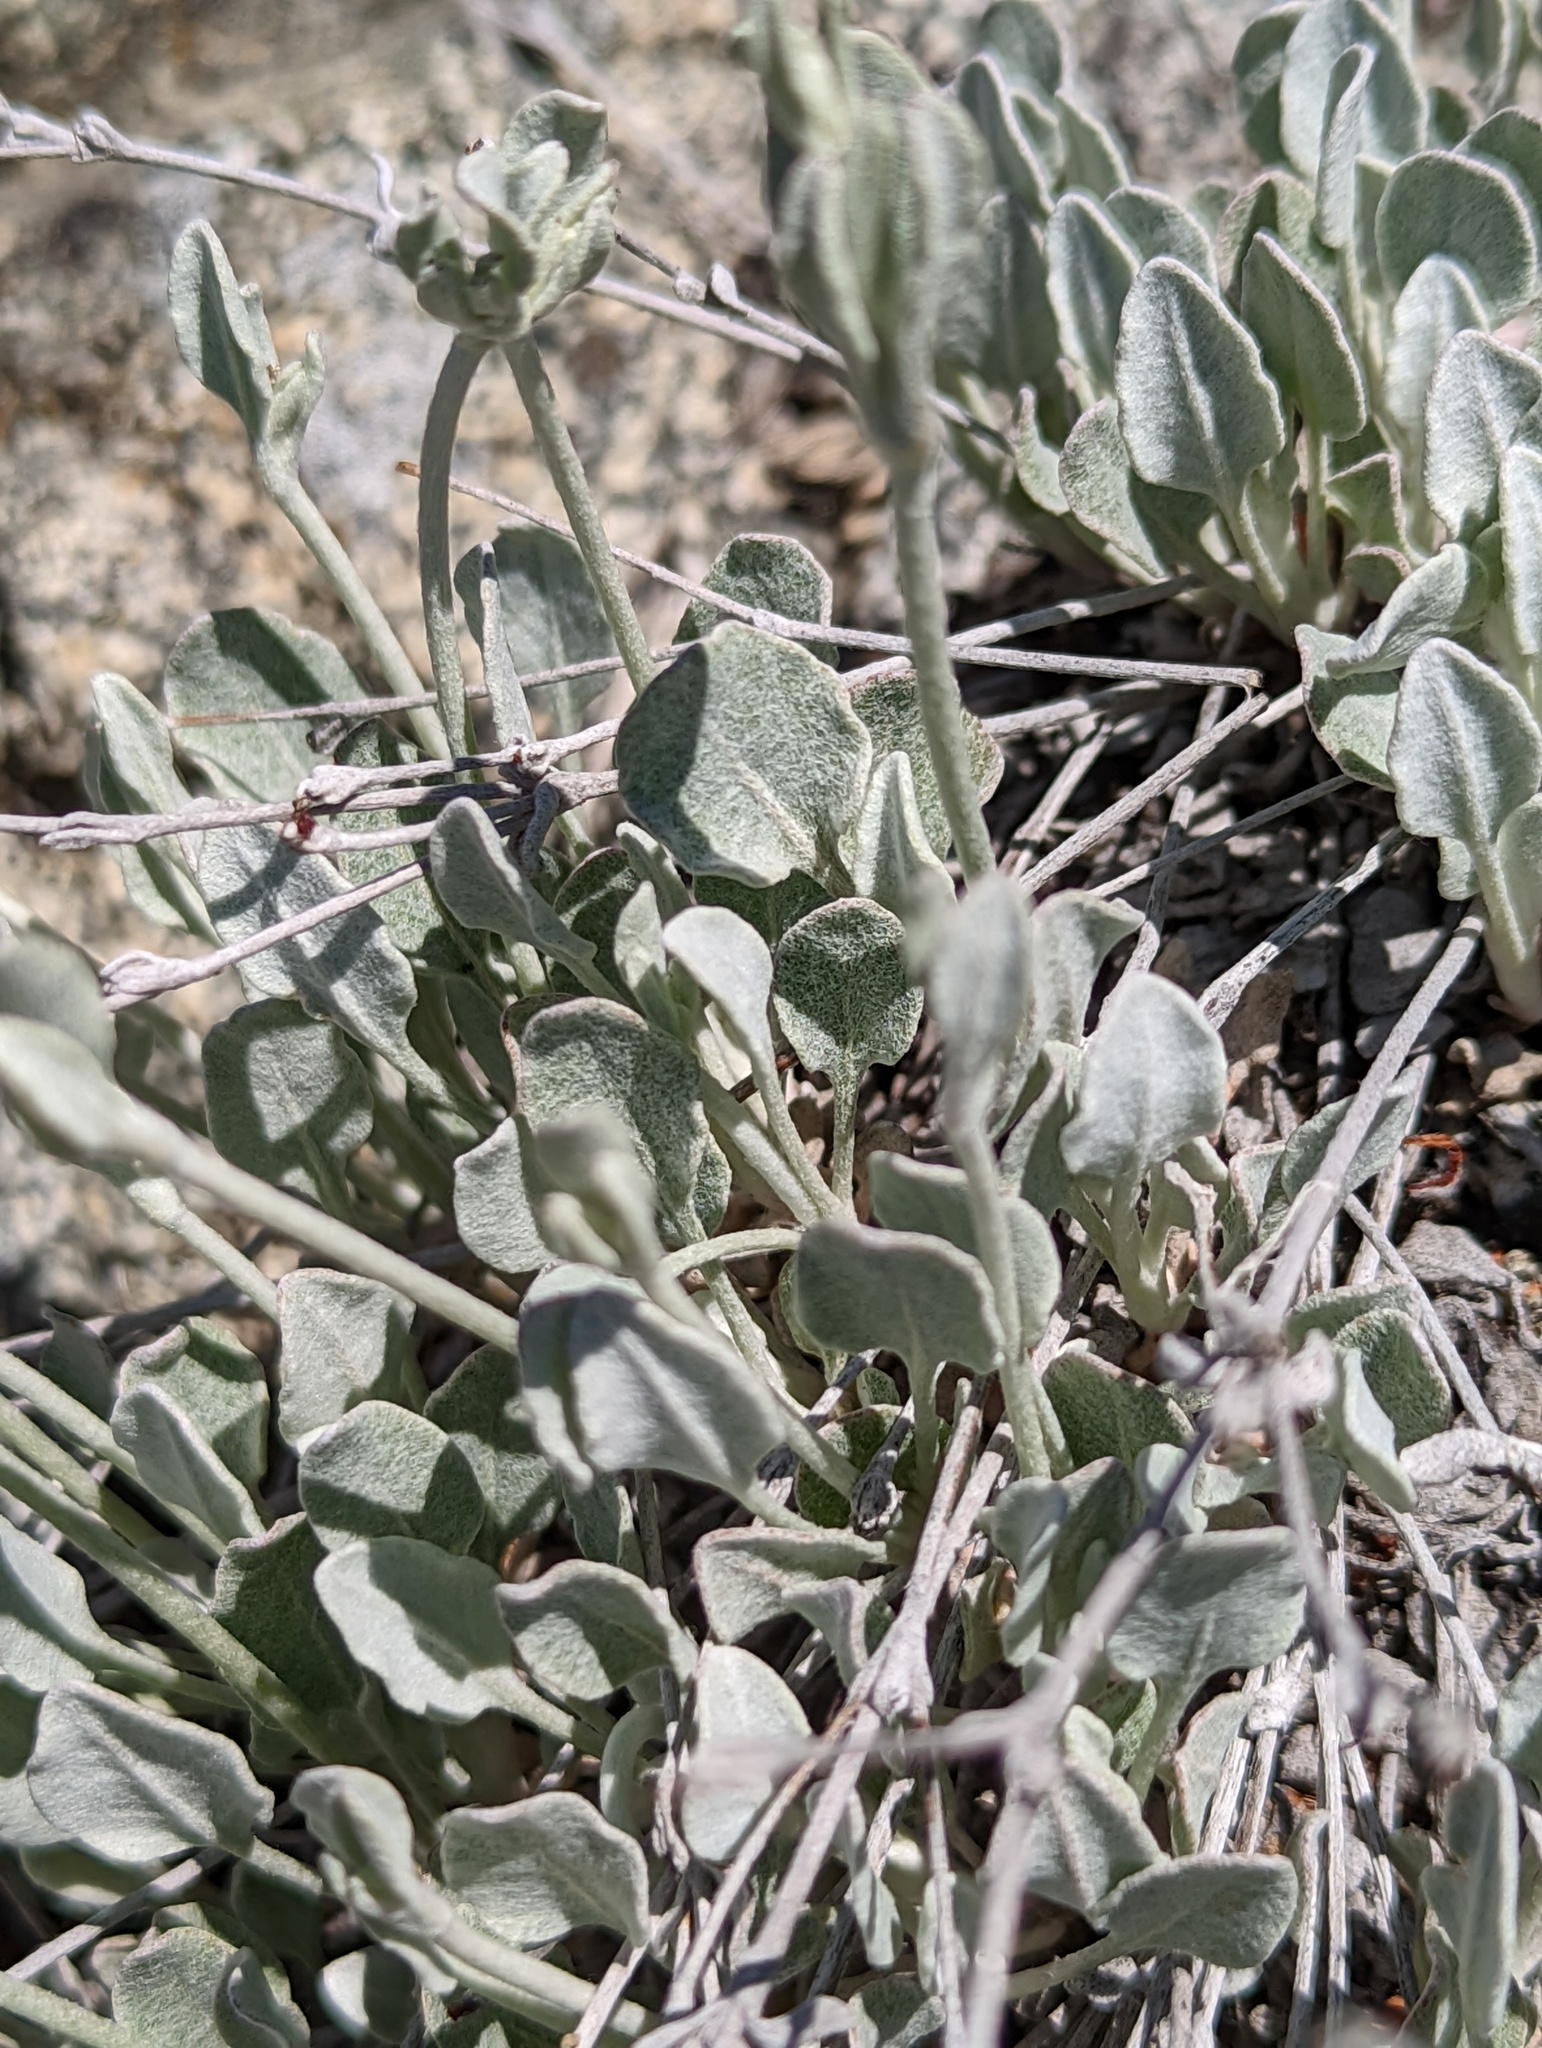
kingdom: Plantae
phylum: Tracheophyta
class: Magnoliopsida
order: Caryophyllales
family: Polygonaceae
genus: Eriogonum
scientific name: Eriogonum niveum
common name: Snow wild buckwheat
